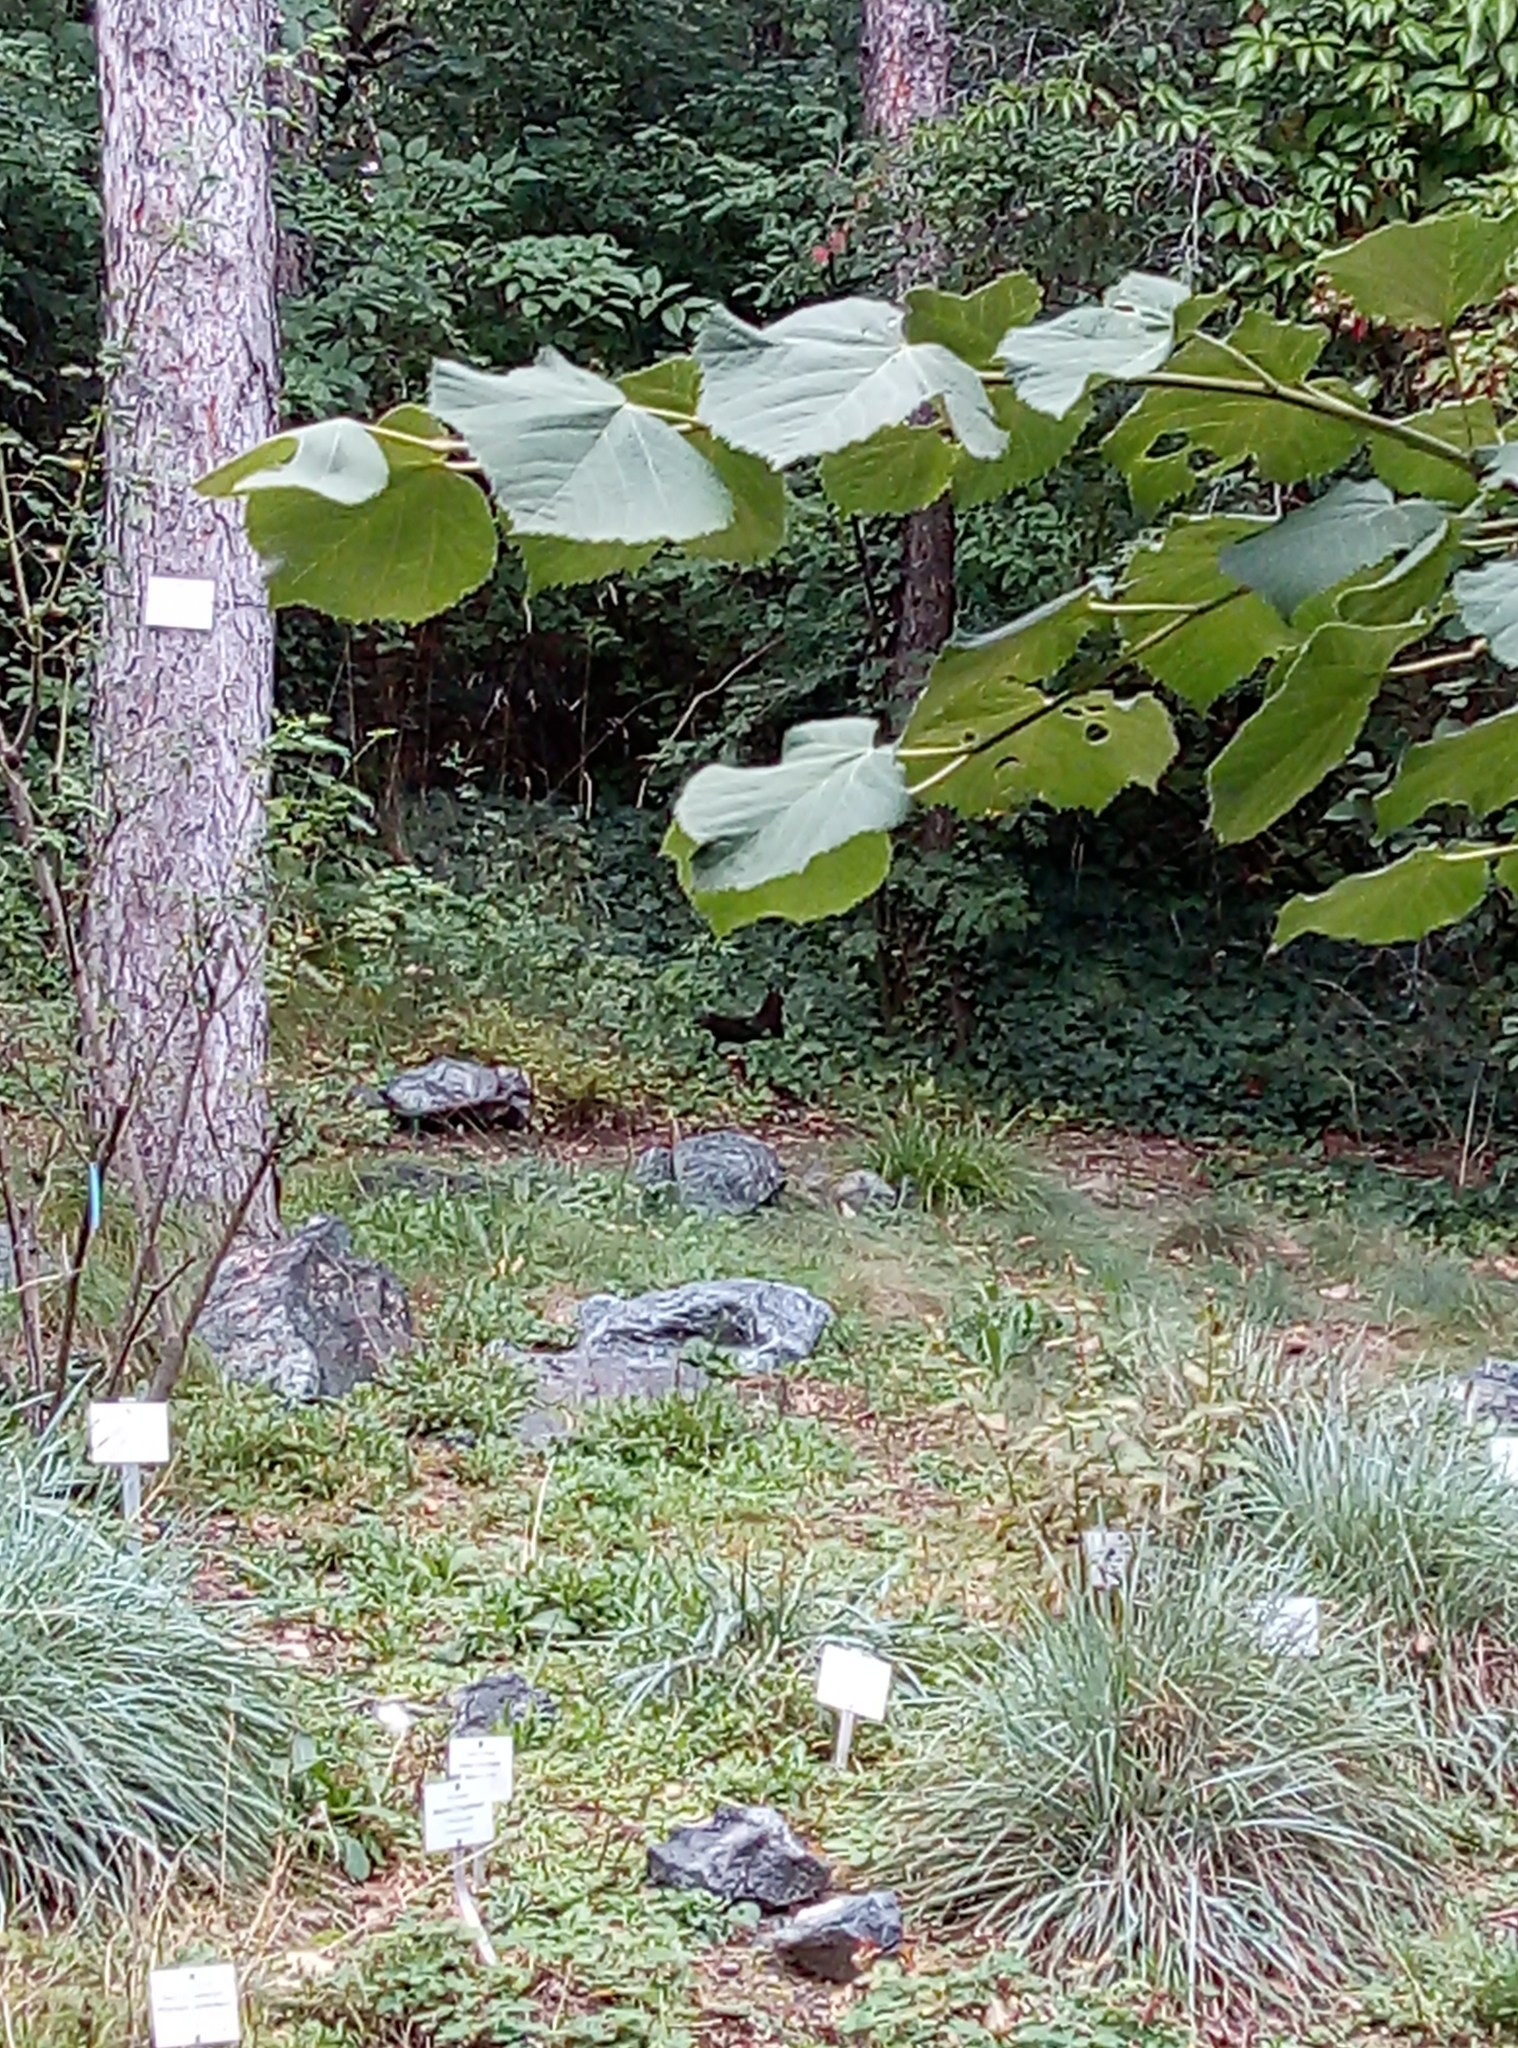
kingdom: Animalia
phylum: Chordata
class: Mammalia
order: Rodentia
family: Sciuridae
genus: Sciurus
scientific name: Sciurus vulgaris
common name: Eurasian red squirrel
